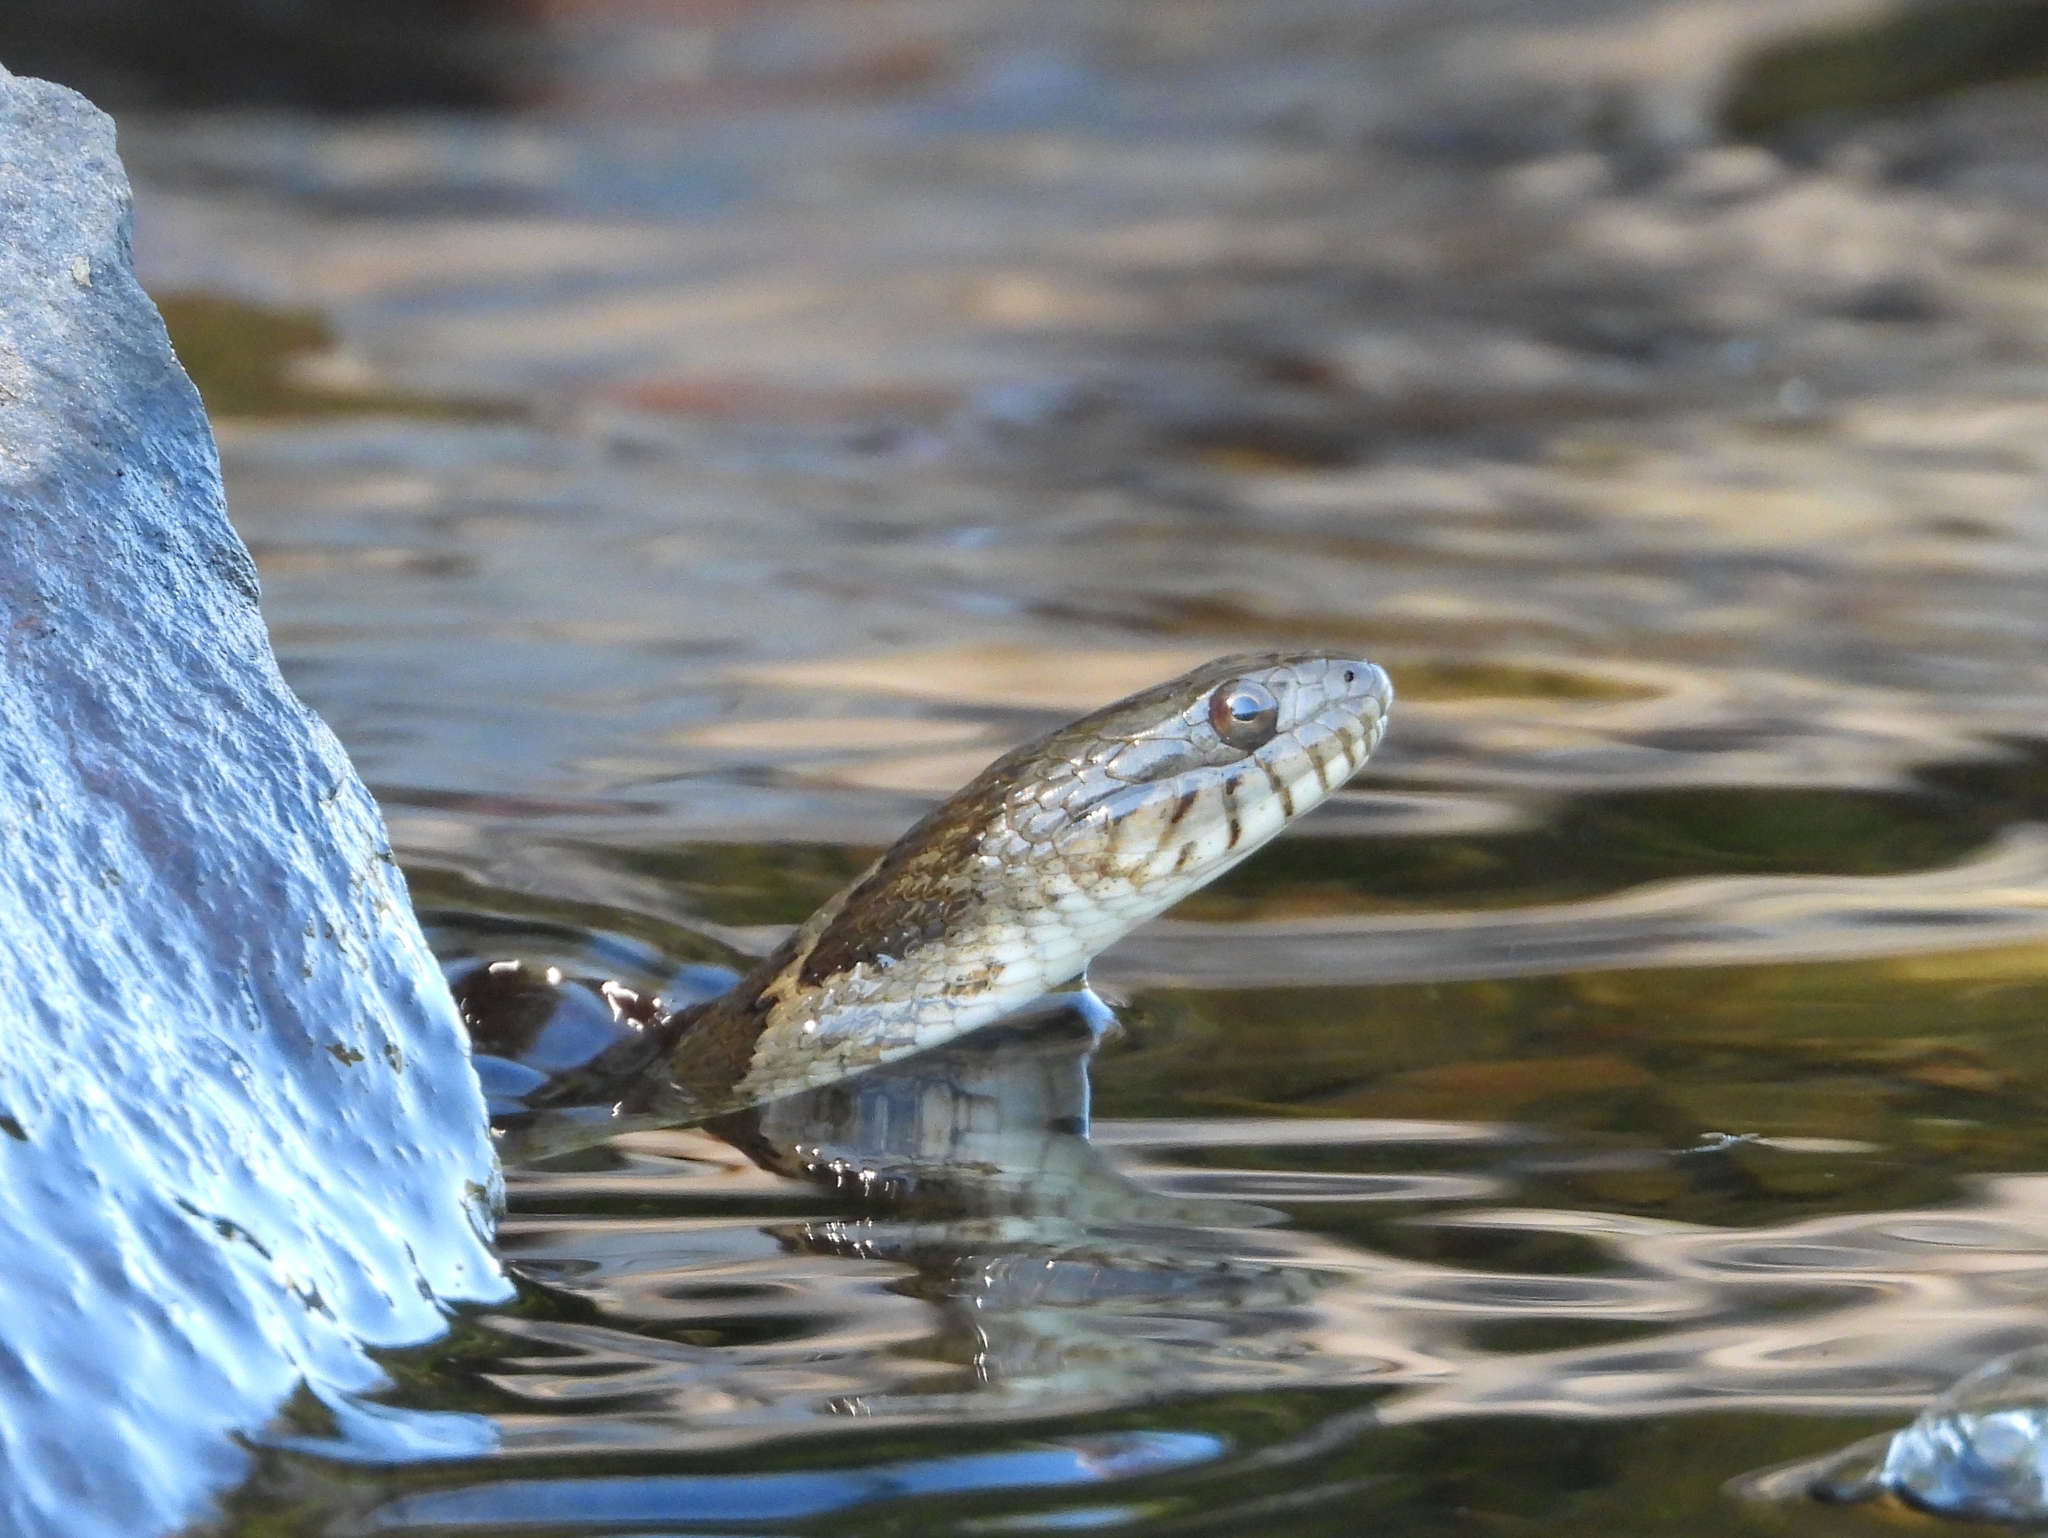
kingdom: Animalia
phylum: Chordata
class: Squamata
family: Colubridae
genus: Nerodia
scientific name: Nerodia sipedon
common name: Northern water snake
